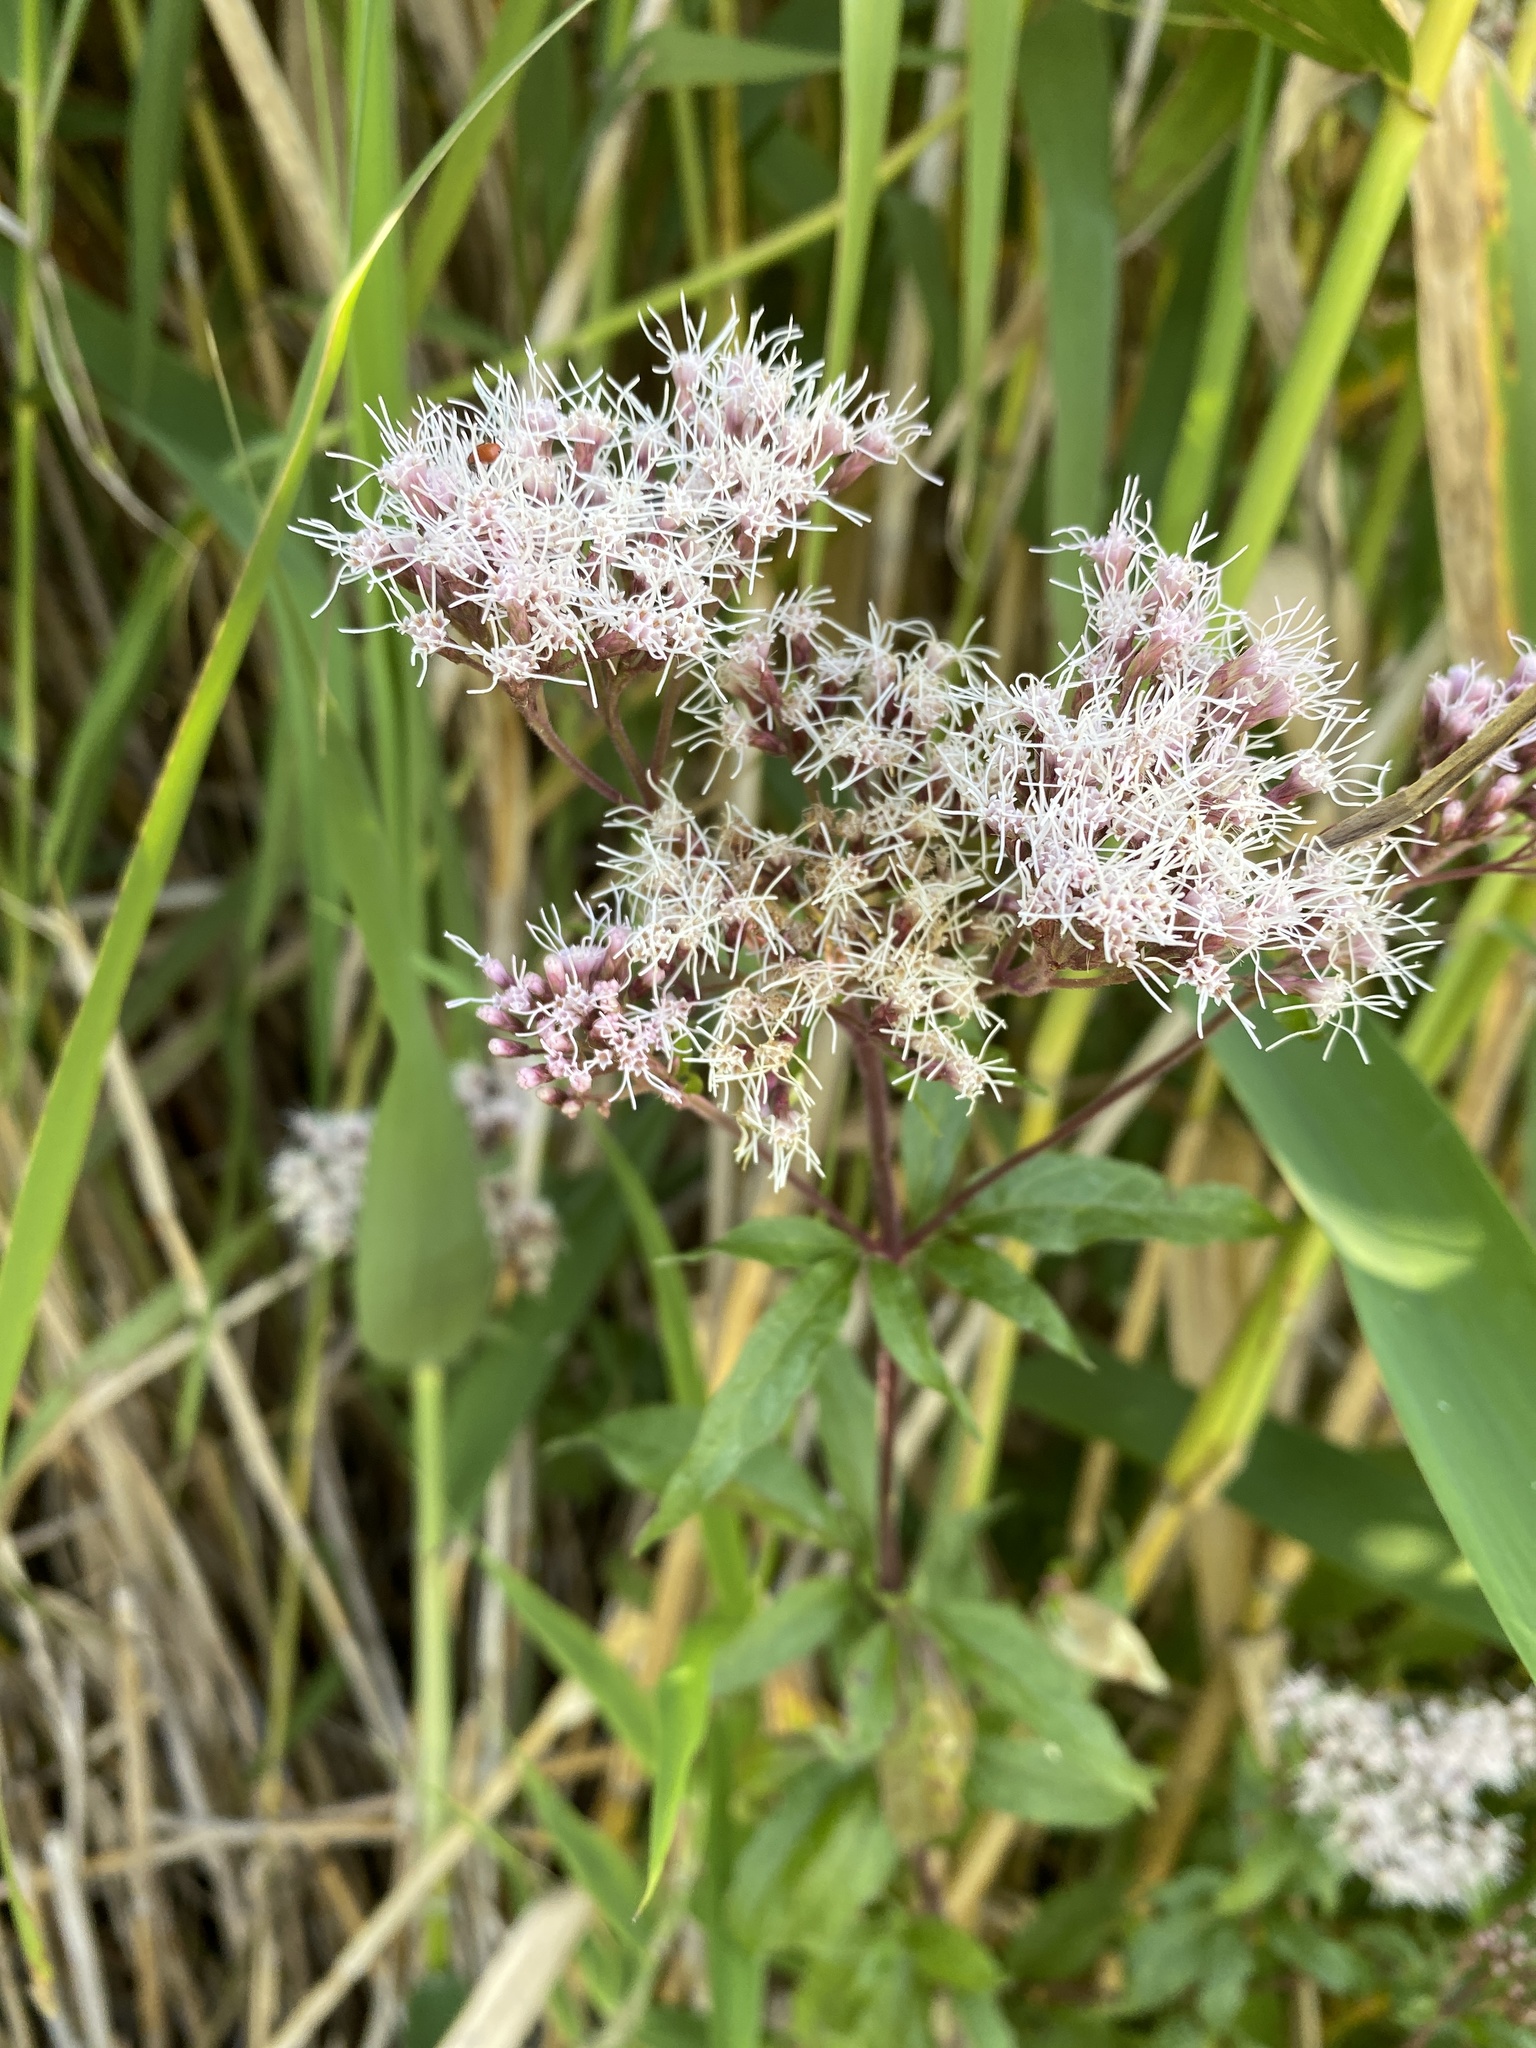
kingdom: Plantae
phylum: Tracheophyta
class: Magnoliopsida
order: Asterales
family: Asteraceae
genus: Eupatorium
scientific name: Eupatorium cannabinum
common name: Hemp-agrimony
